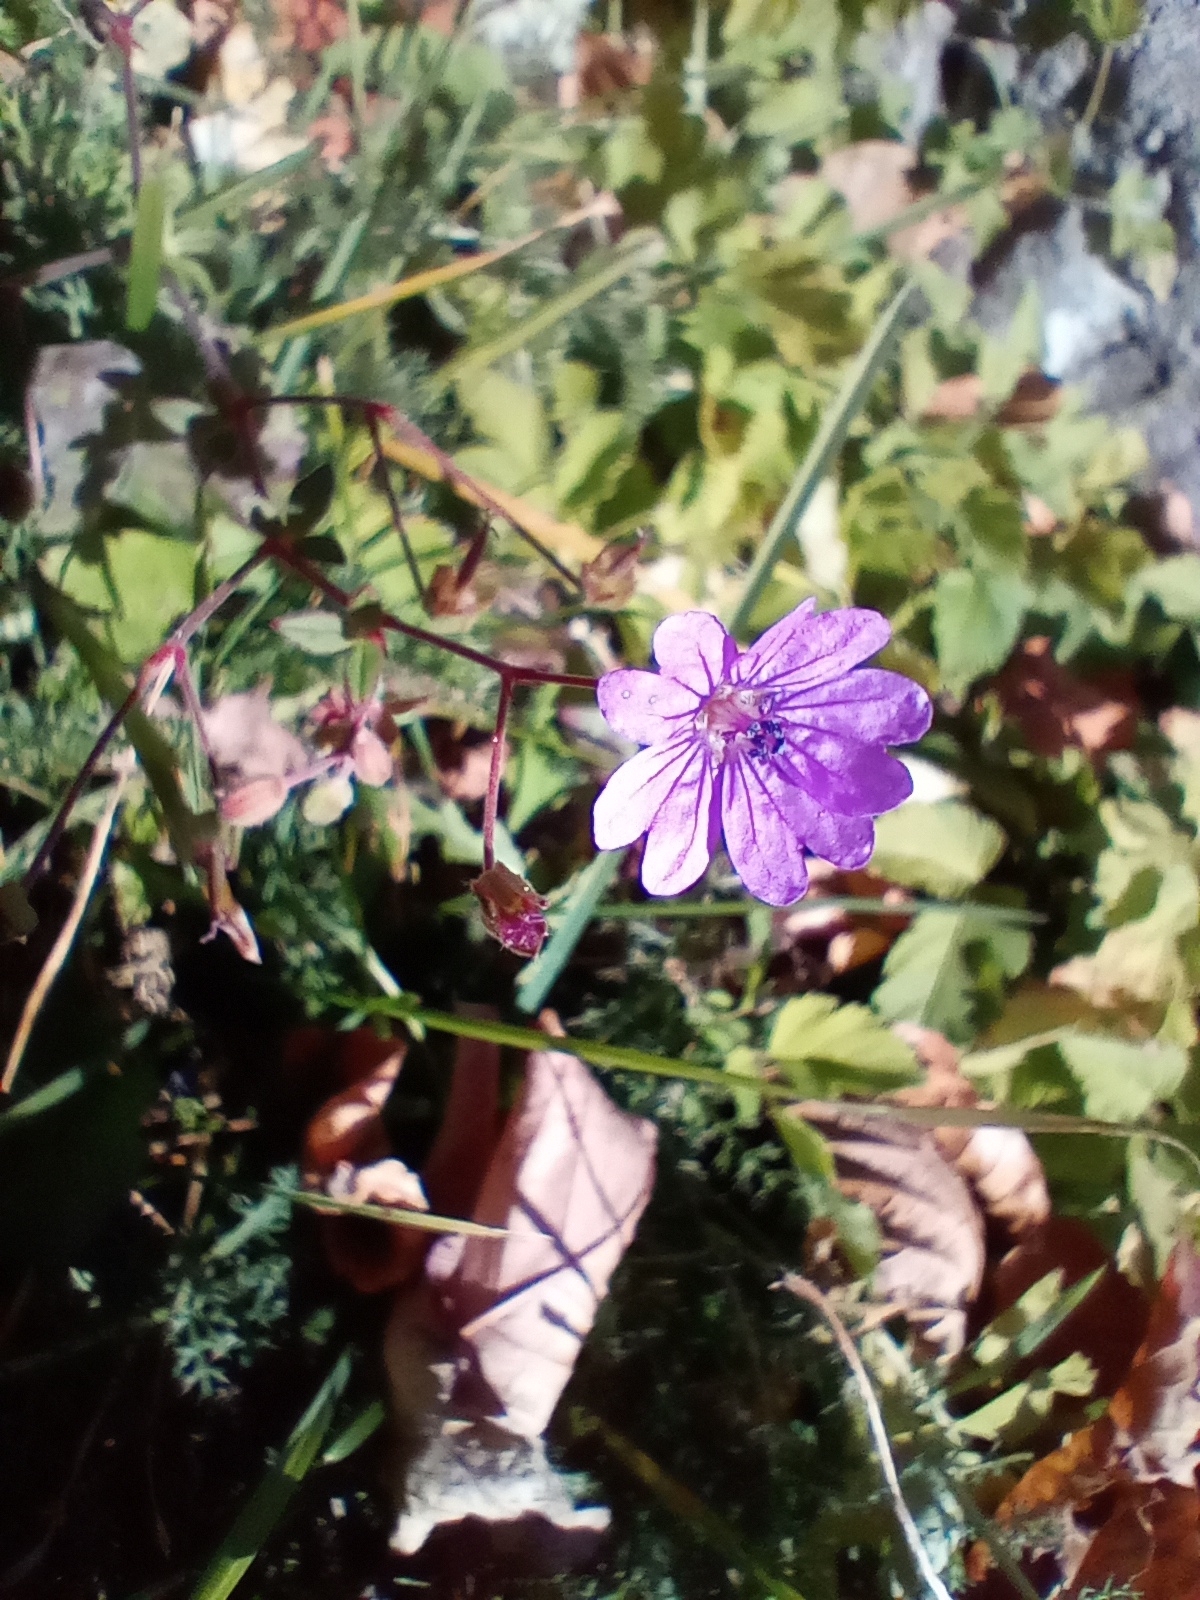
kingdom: Plantae
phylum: Tracheophyta
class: Magnoliopsida
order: Geraniales
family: Geraniaceae
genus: Geranium
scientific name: Geranium pyrenaicum
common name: Hedgerow crane's-bill
